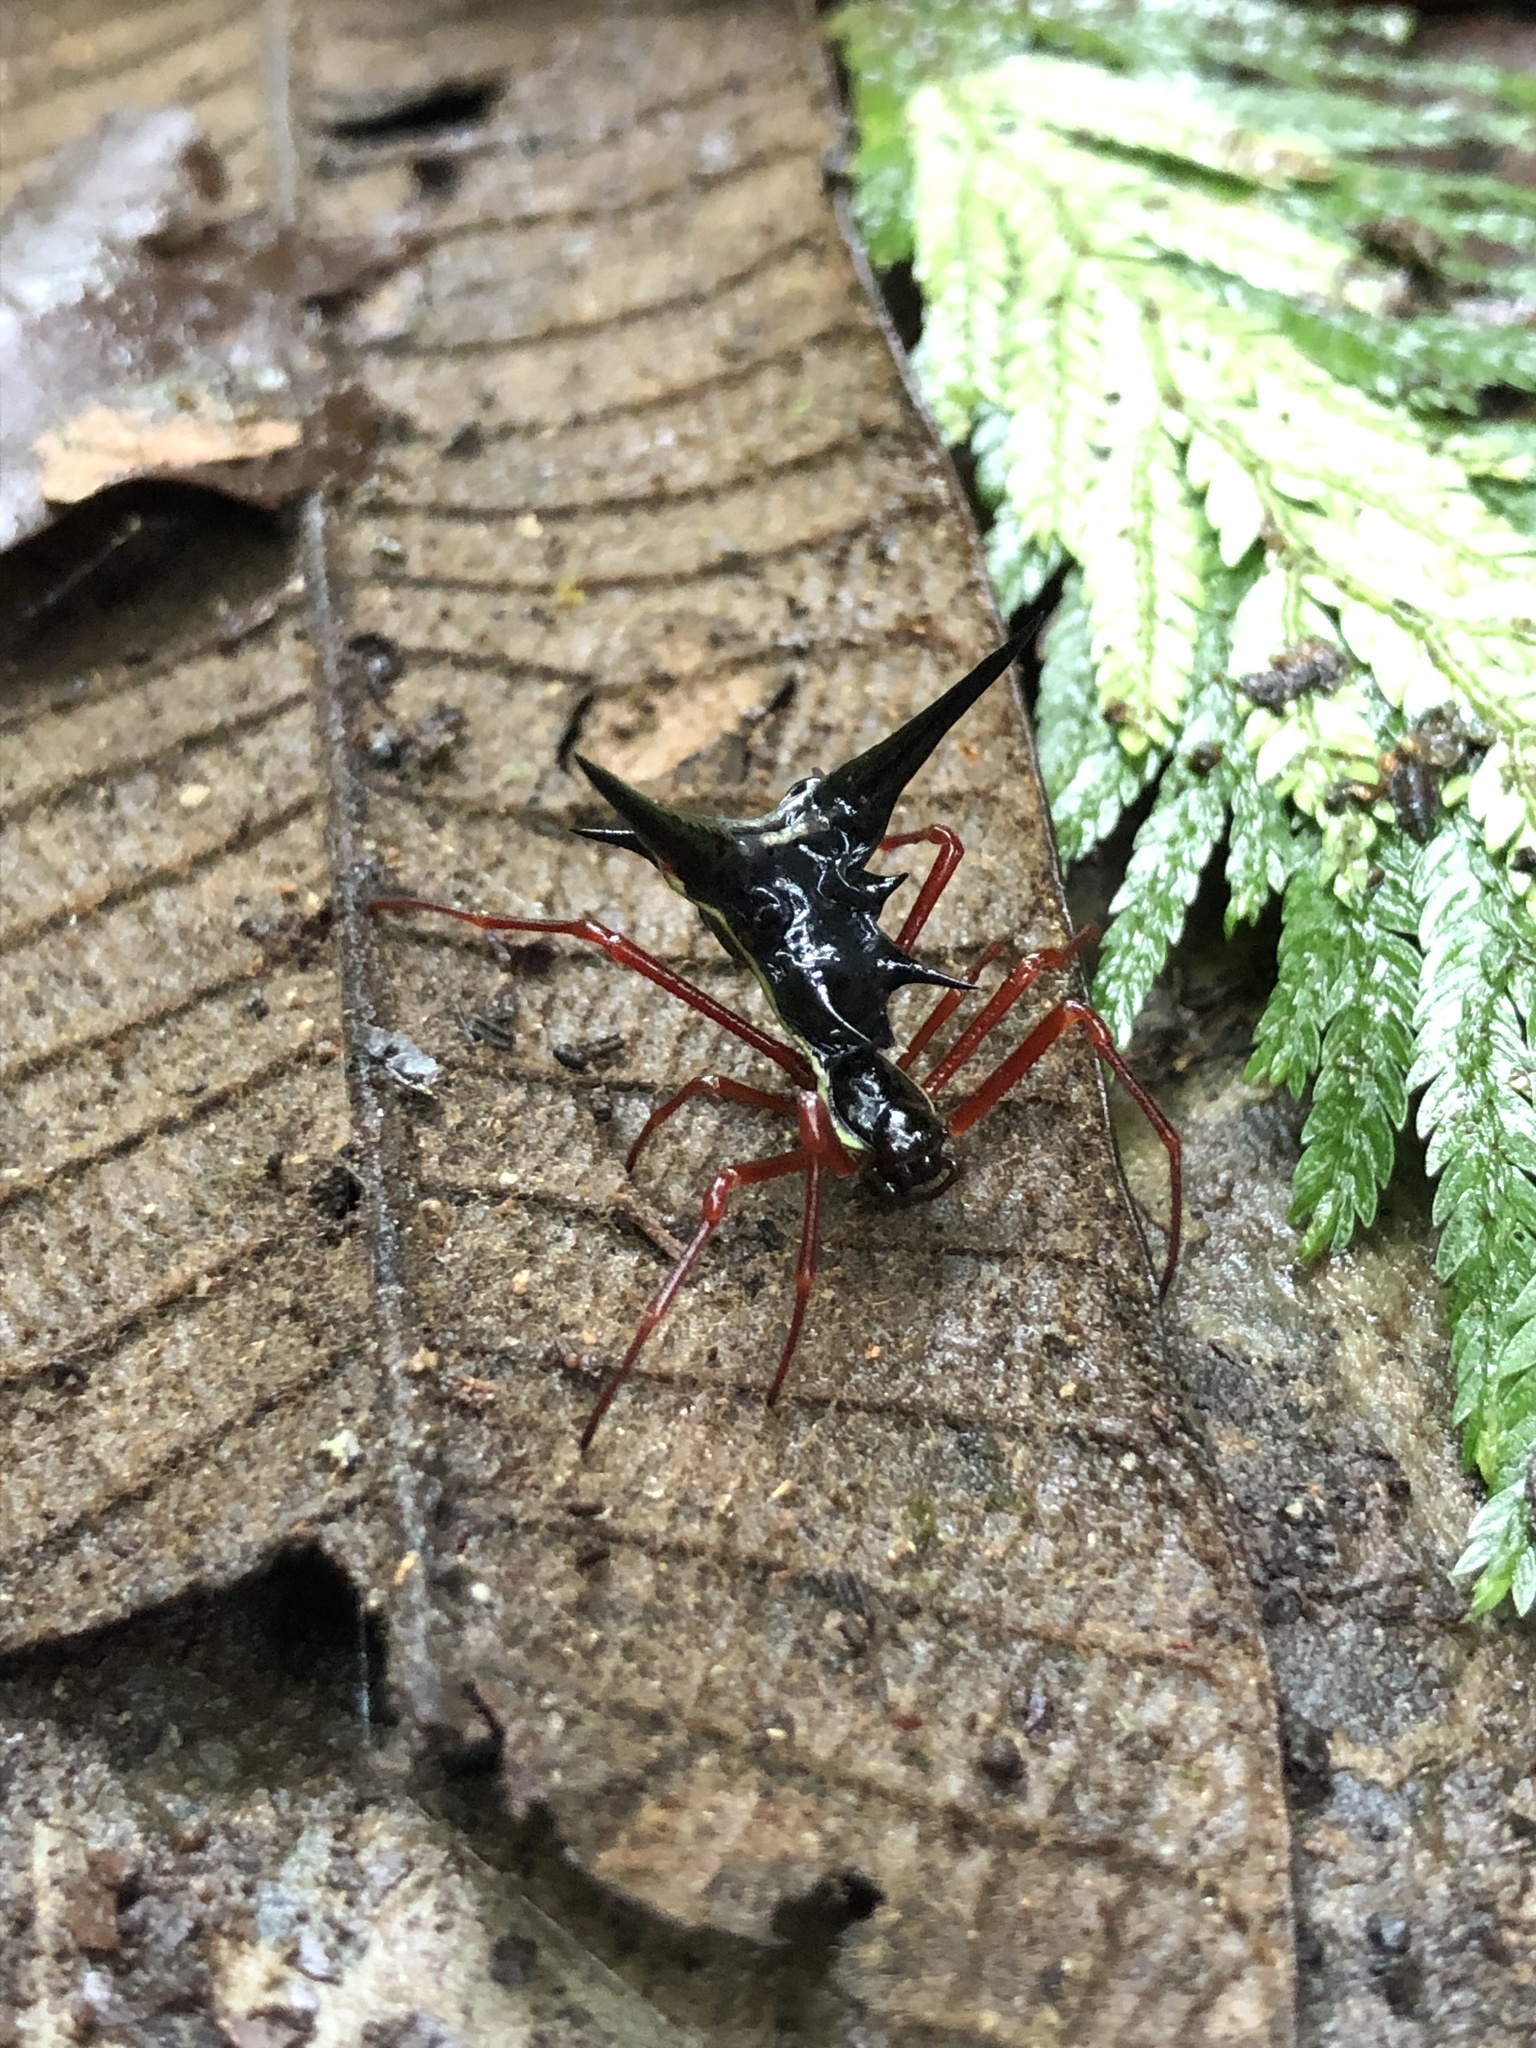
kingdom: Animalia
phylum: Arthropoda
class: Arachnida
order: Araneae
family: Araneidae
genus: Micrathena
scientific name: Micrathena schreibersi
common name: Orb weavers
